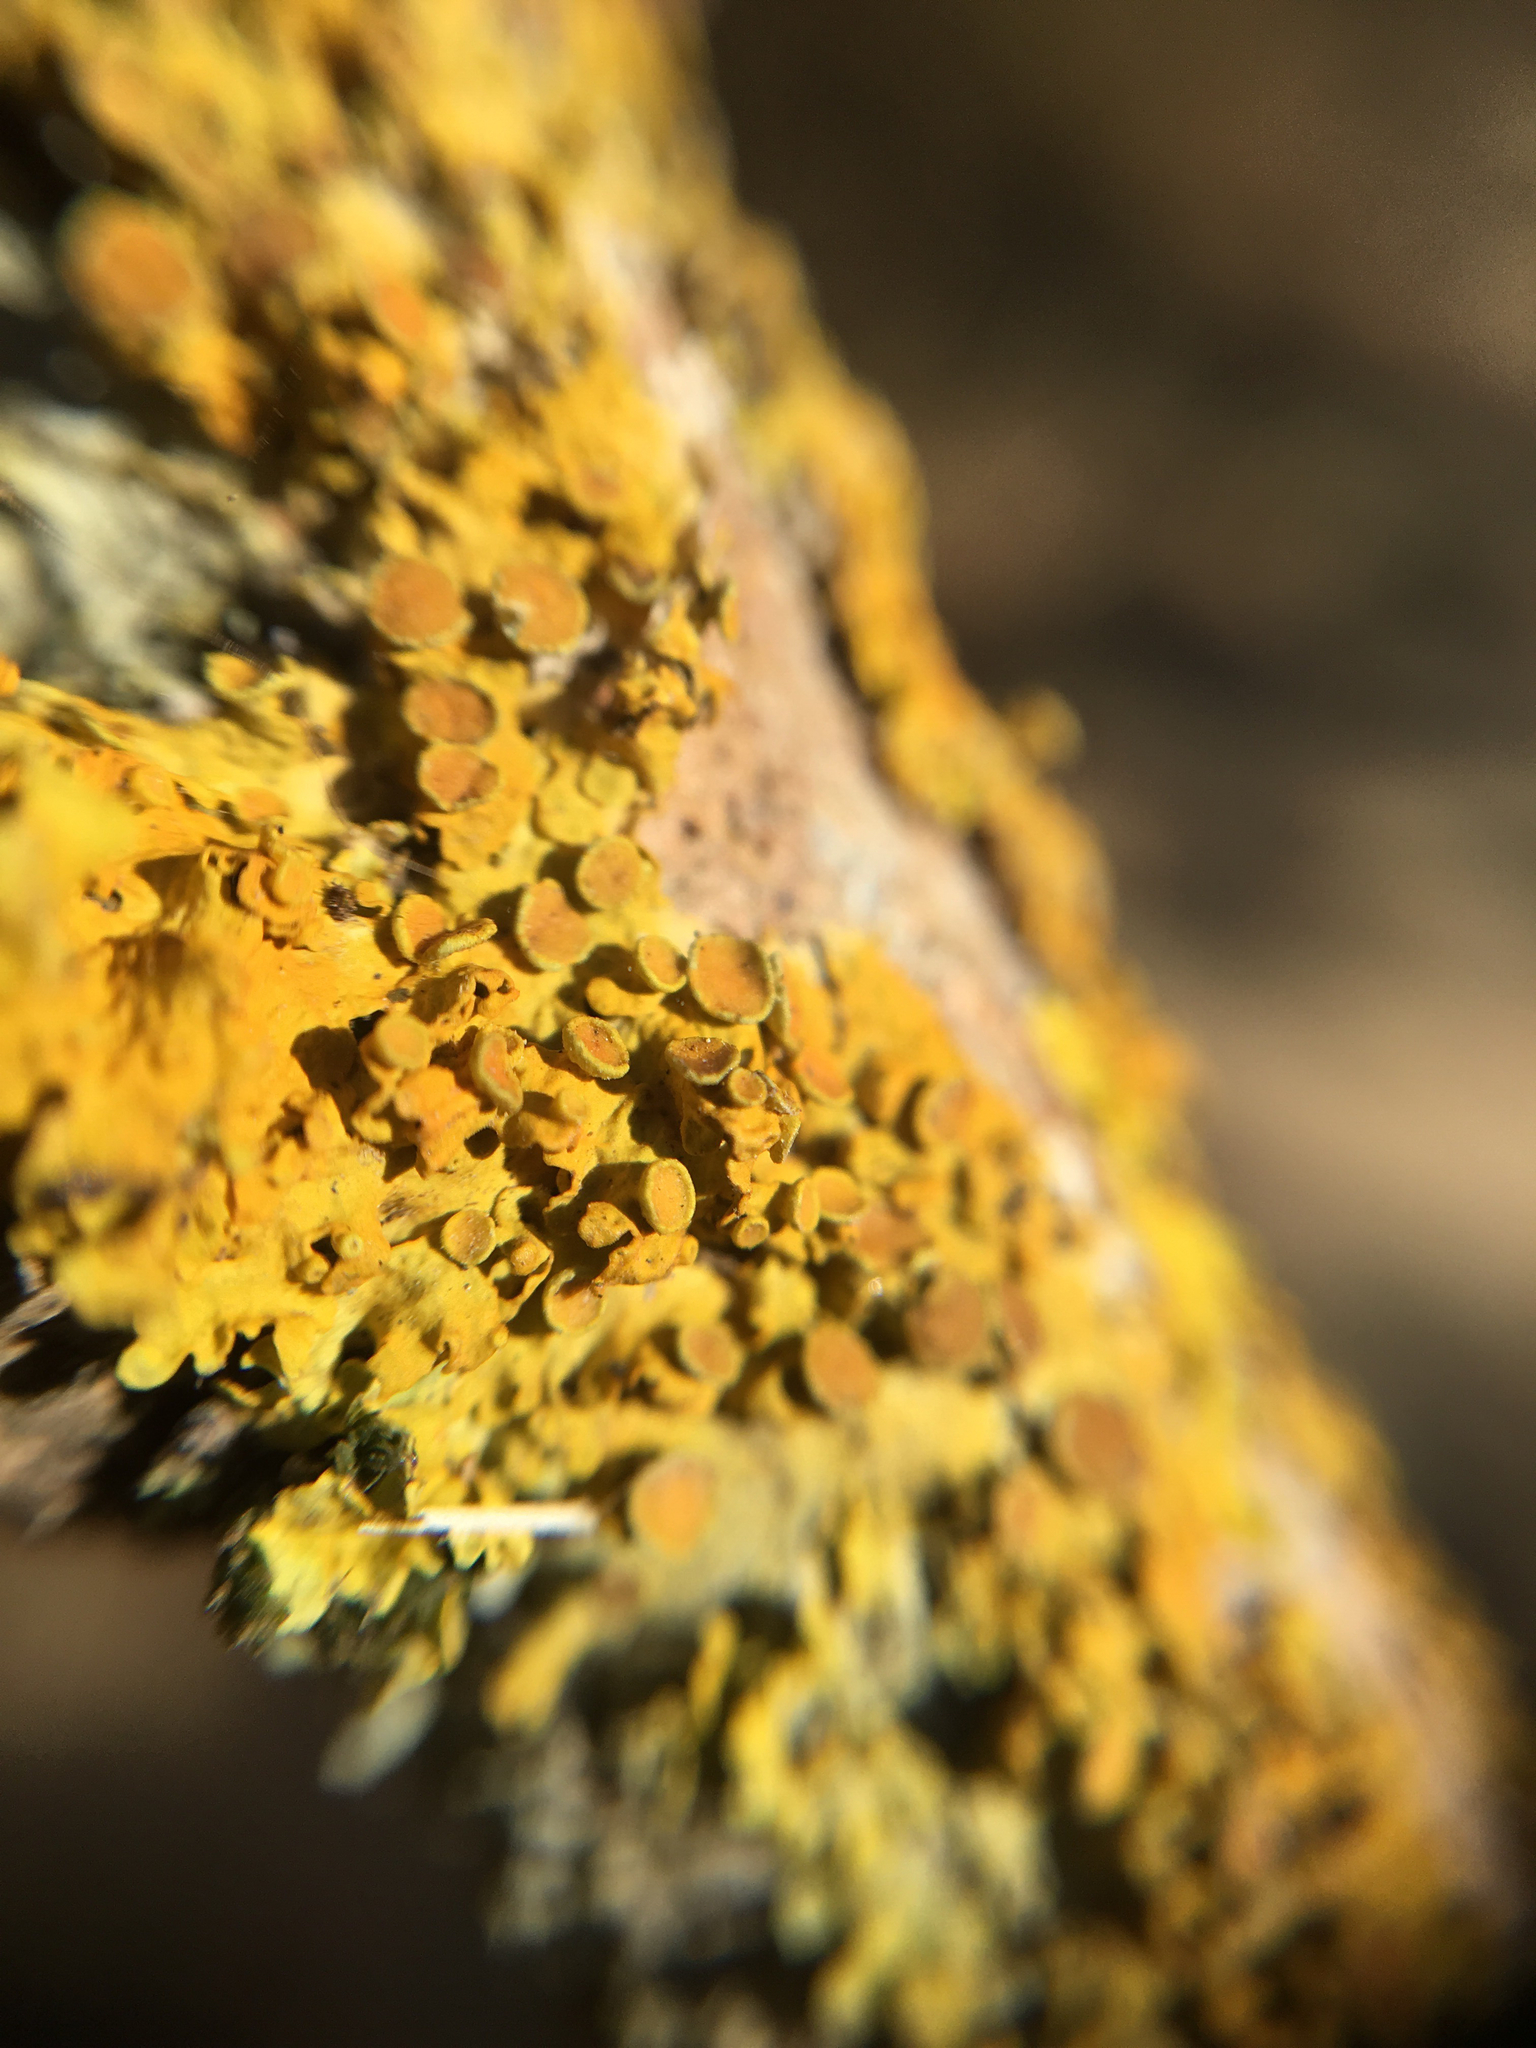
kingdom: Fungi
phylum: Ascomycota
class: Lecanoromycetes
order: Teloschistales
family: Teloschistaceae
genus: Xanthoria
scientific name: Xanthoria parietina
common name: Common orange lichen
